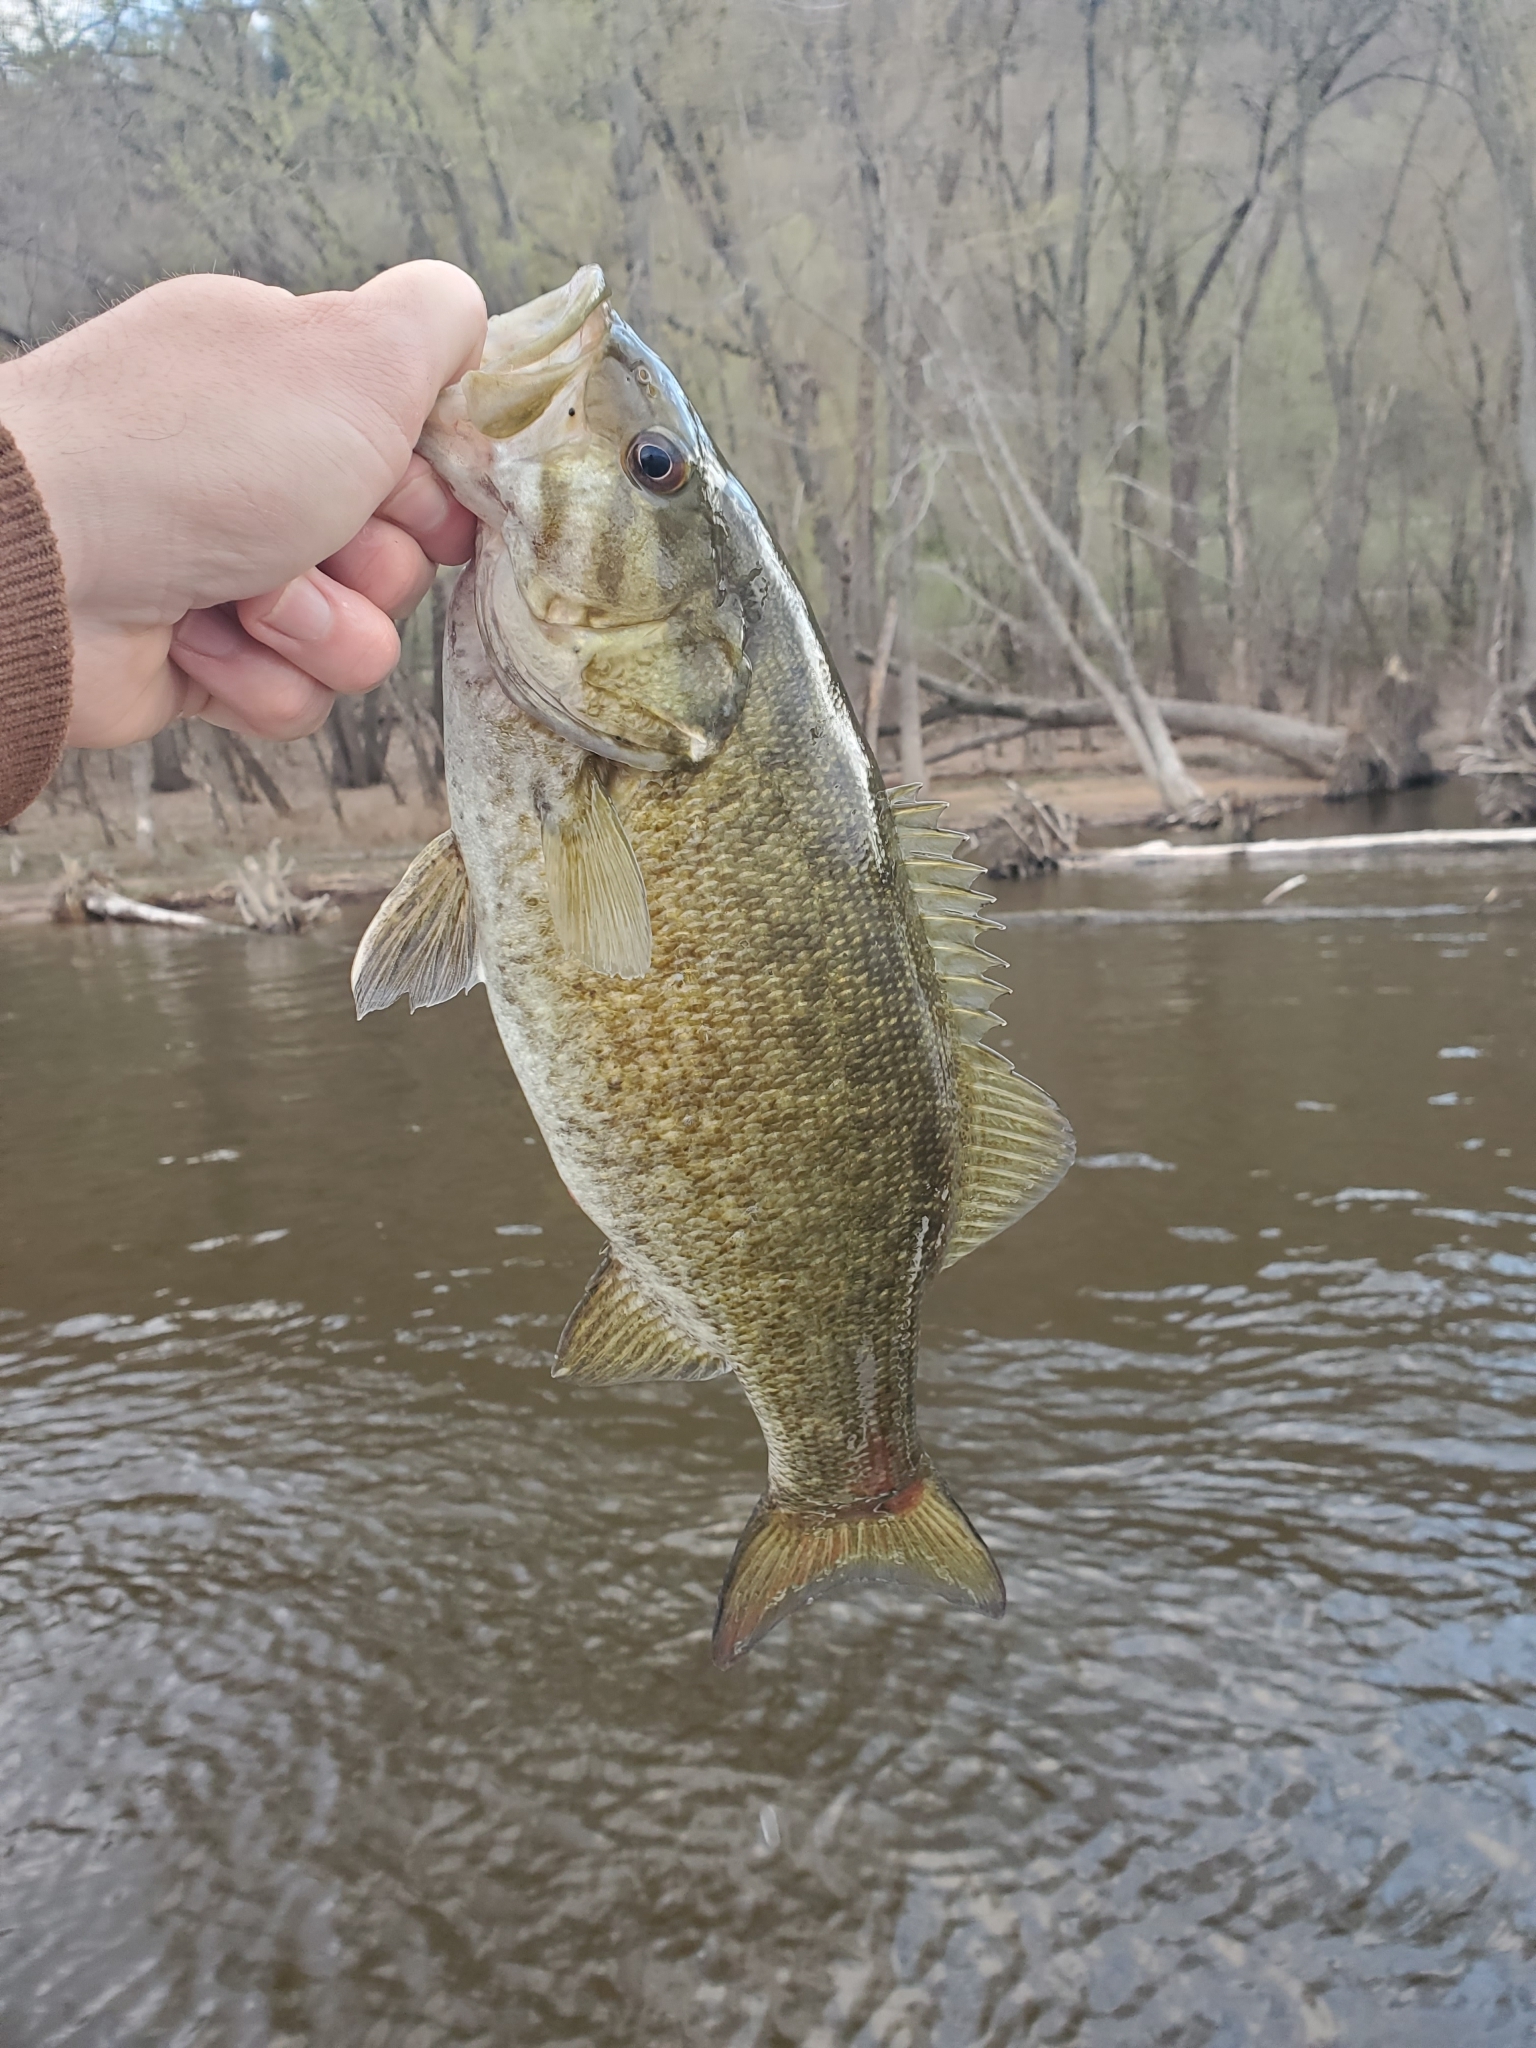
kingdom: Animalia
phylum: Chordata
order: Perciformes
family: Centrarchidae
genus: Micropterus
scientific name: Micropterus dolomieu
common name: Smallmouth bass
